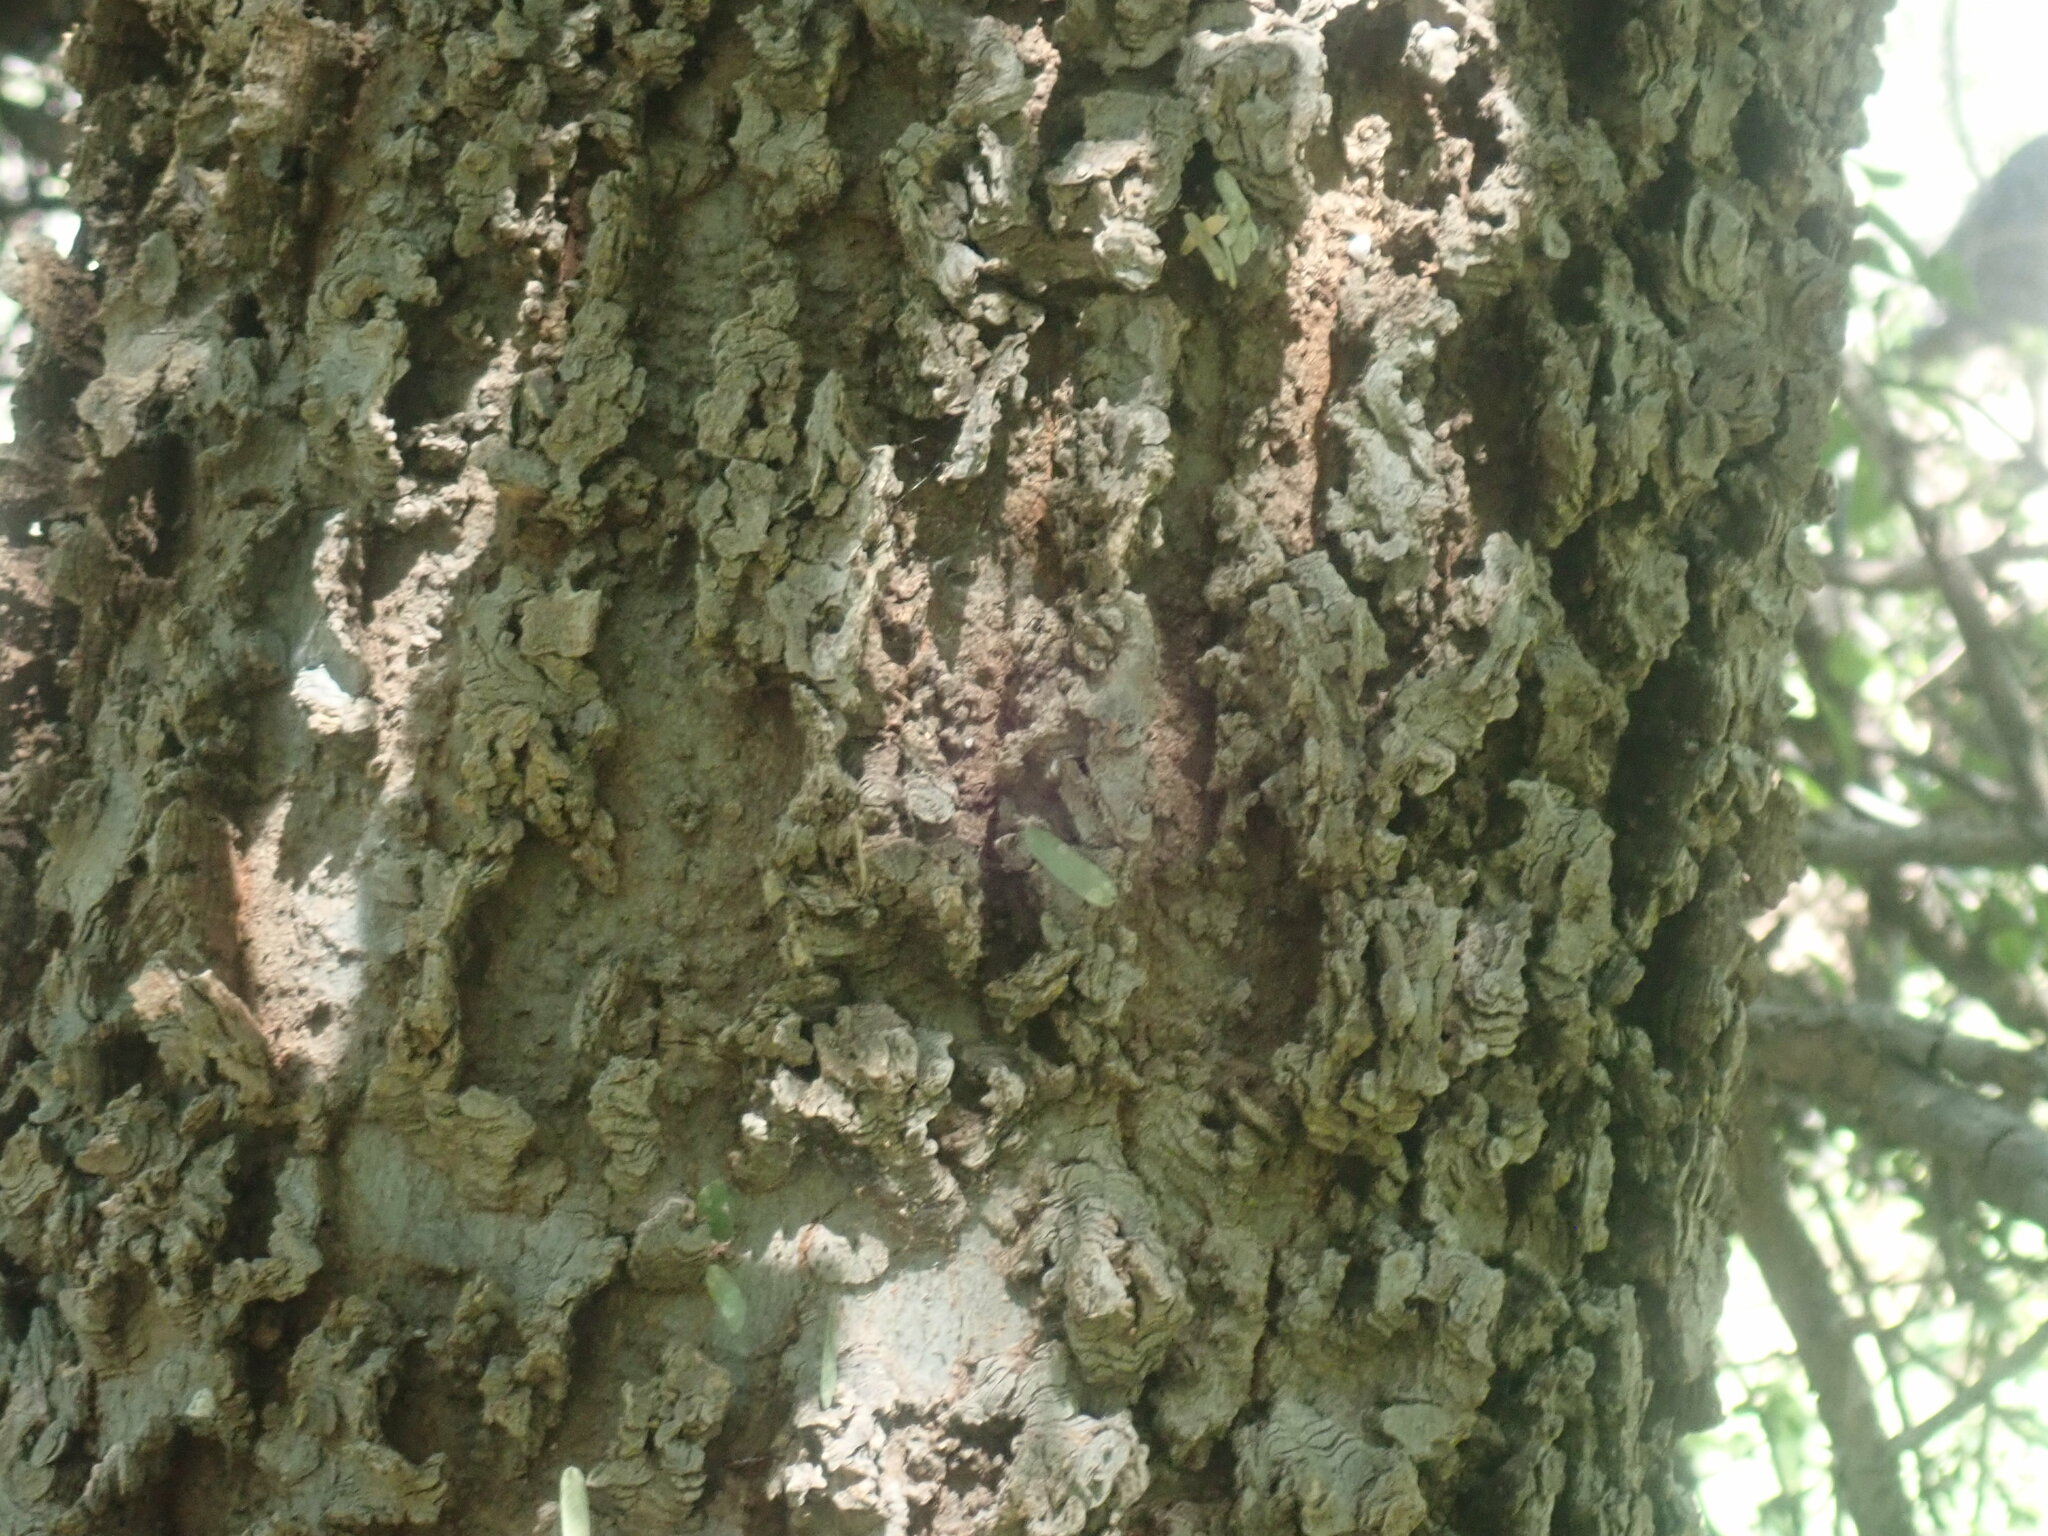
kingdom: Plantae
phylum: Tracheophyta
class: Magnoliopsida
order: Rosales
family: Cannabaceae
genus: Celtis
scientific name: Celtis reticulata
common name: Netleaf hackberry
